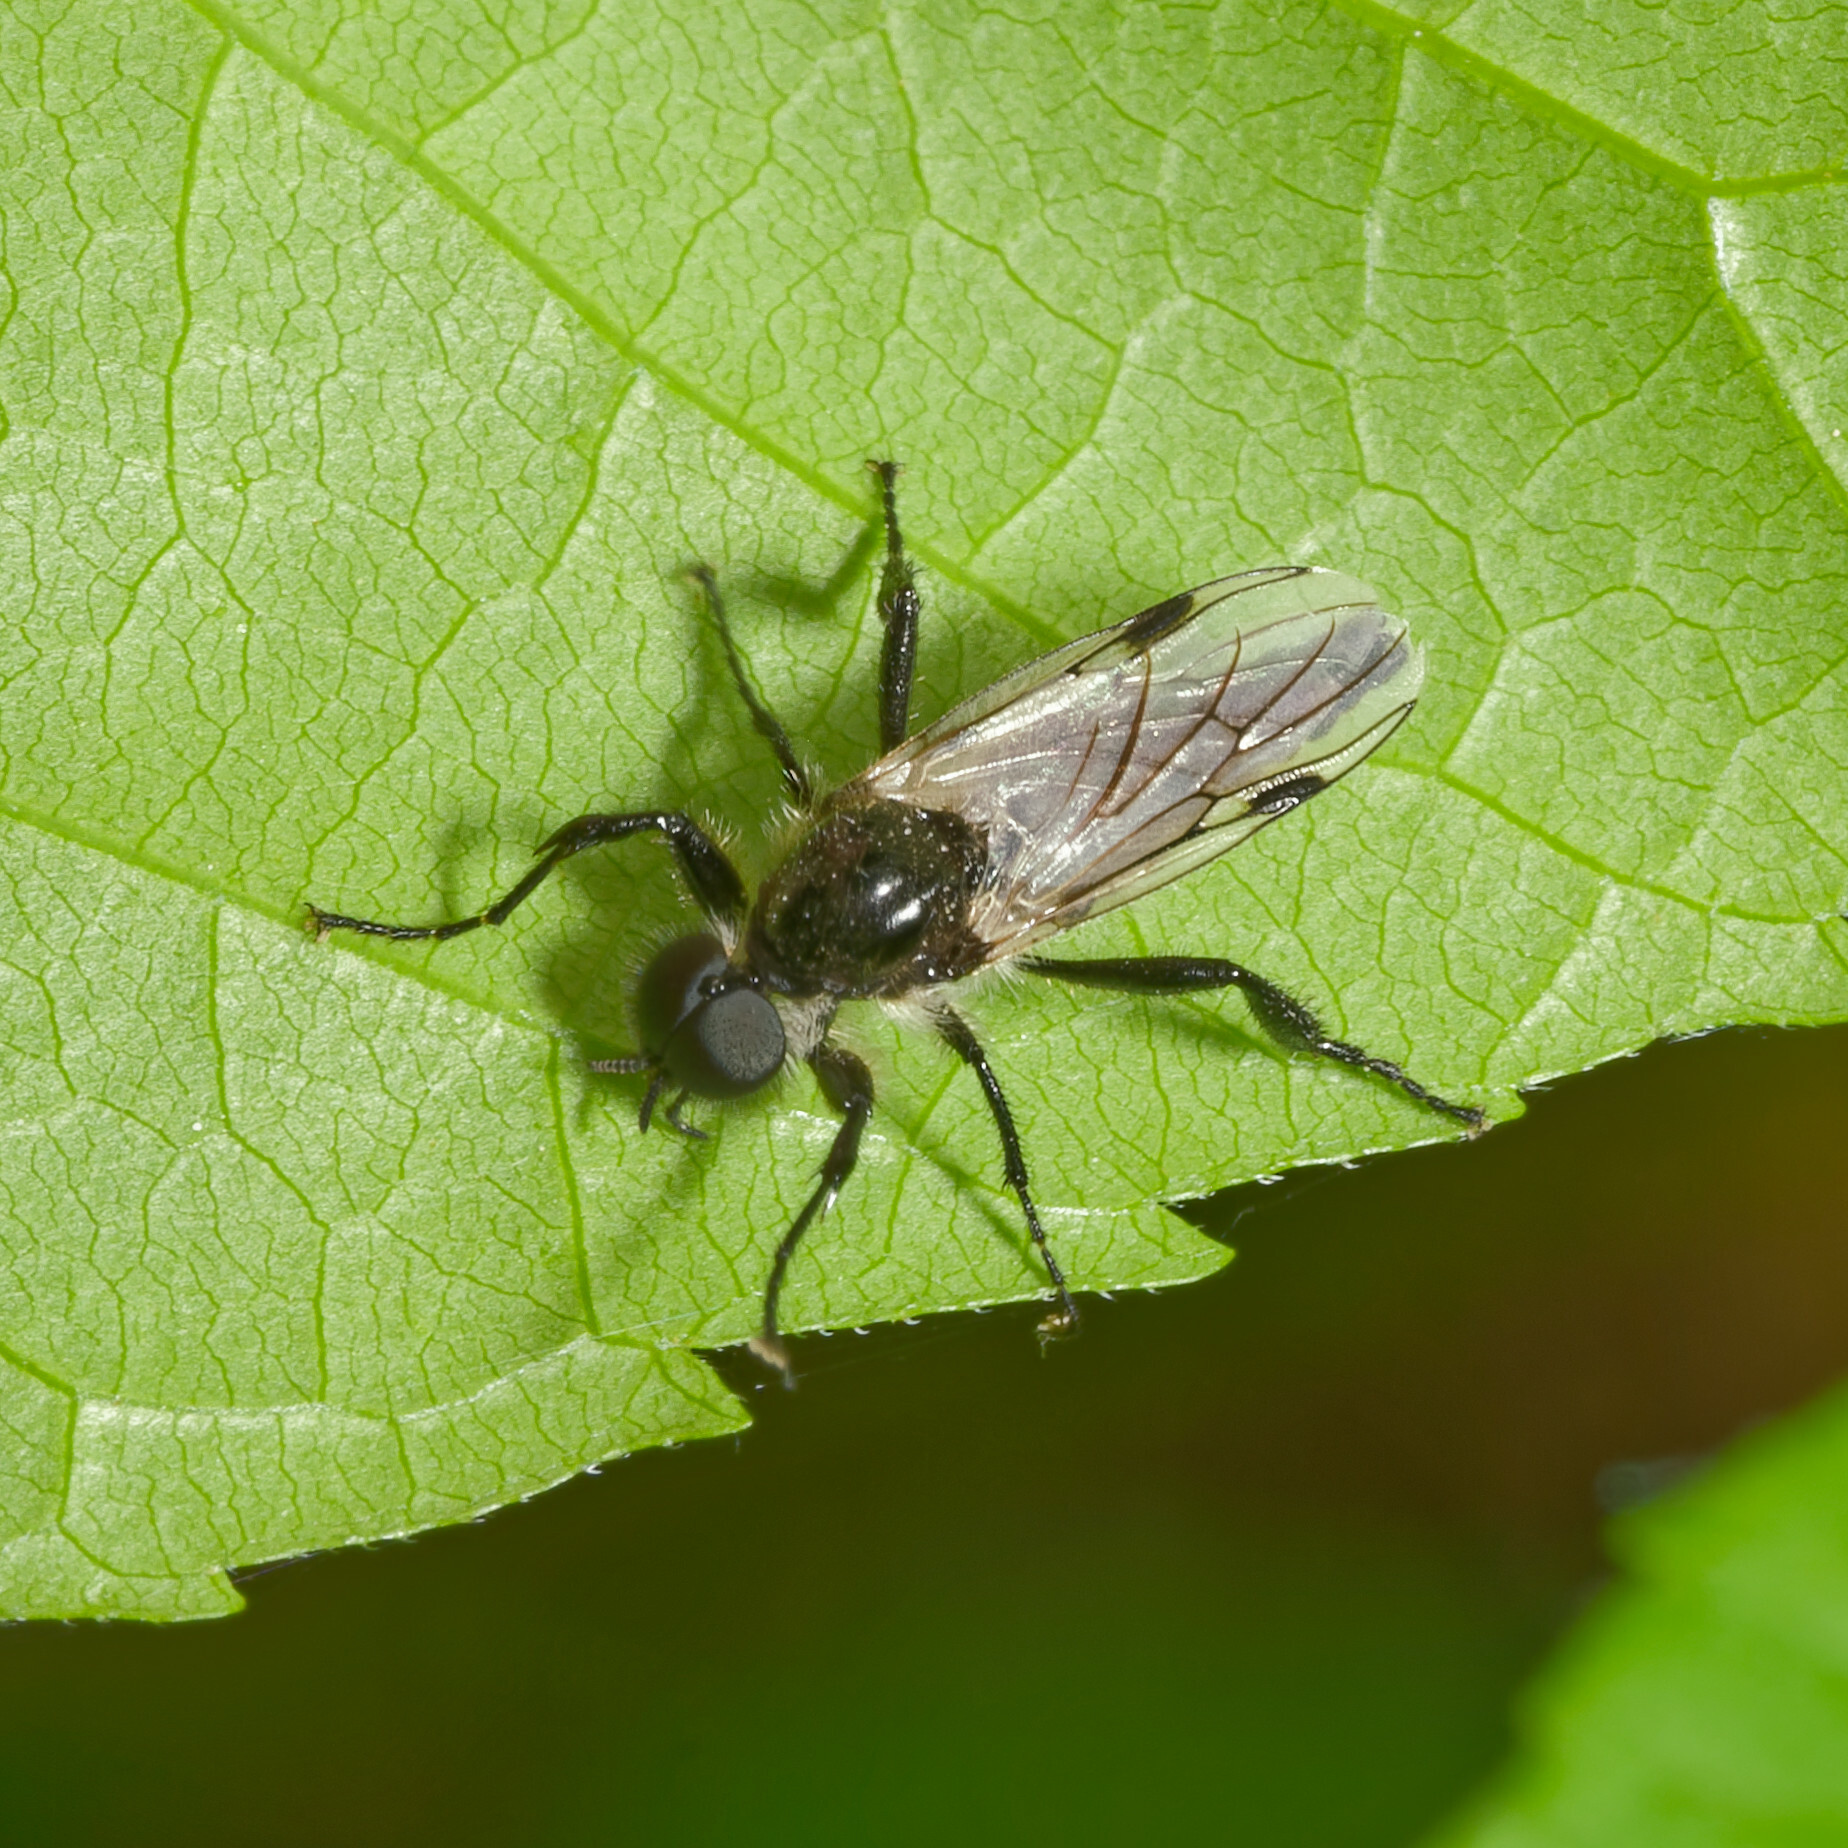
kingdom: Animalia
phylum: Arthropoda
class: Insecta
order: Diptera
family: Bibionidae
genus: Bibio
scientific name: Bibio albipennis
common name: White-winged march fly
